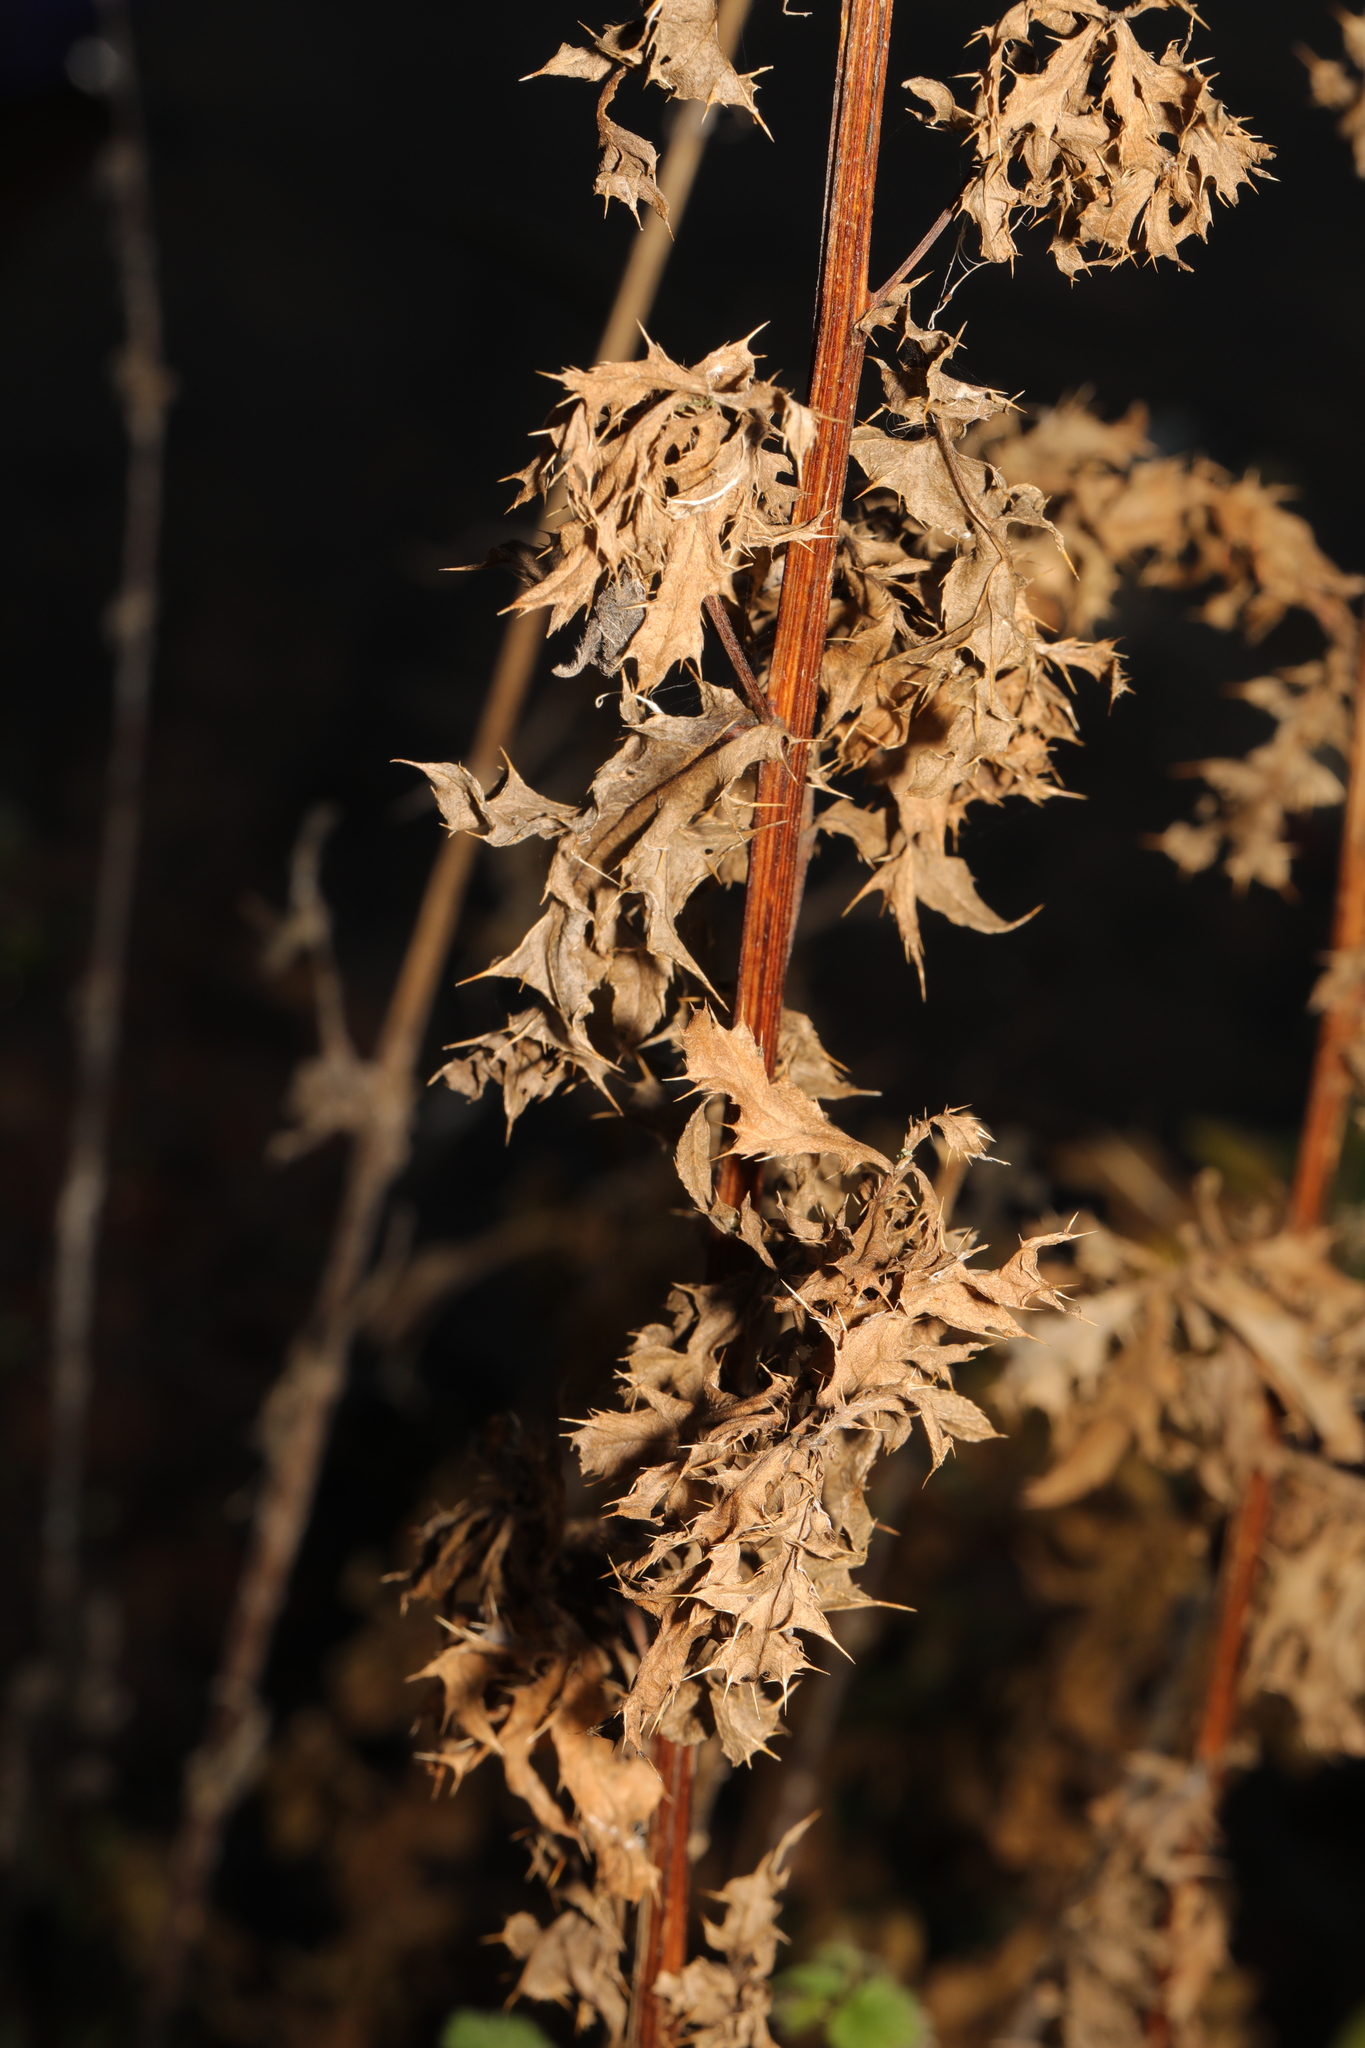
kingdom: Plantae
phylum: Tracheophyta
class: Magnoliopsida
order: Asterales
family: Asteraceae
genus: Cirsium
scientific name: Cirsium arvense
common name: Creeping thistle
